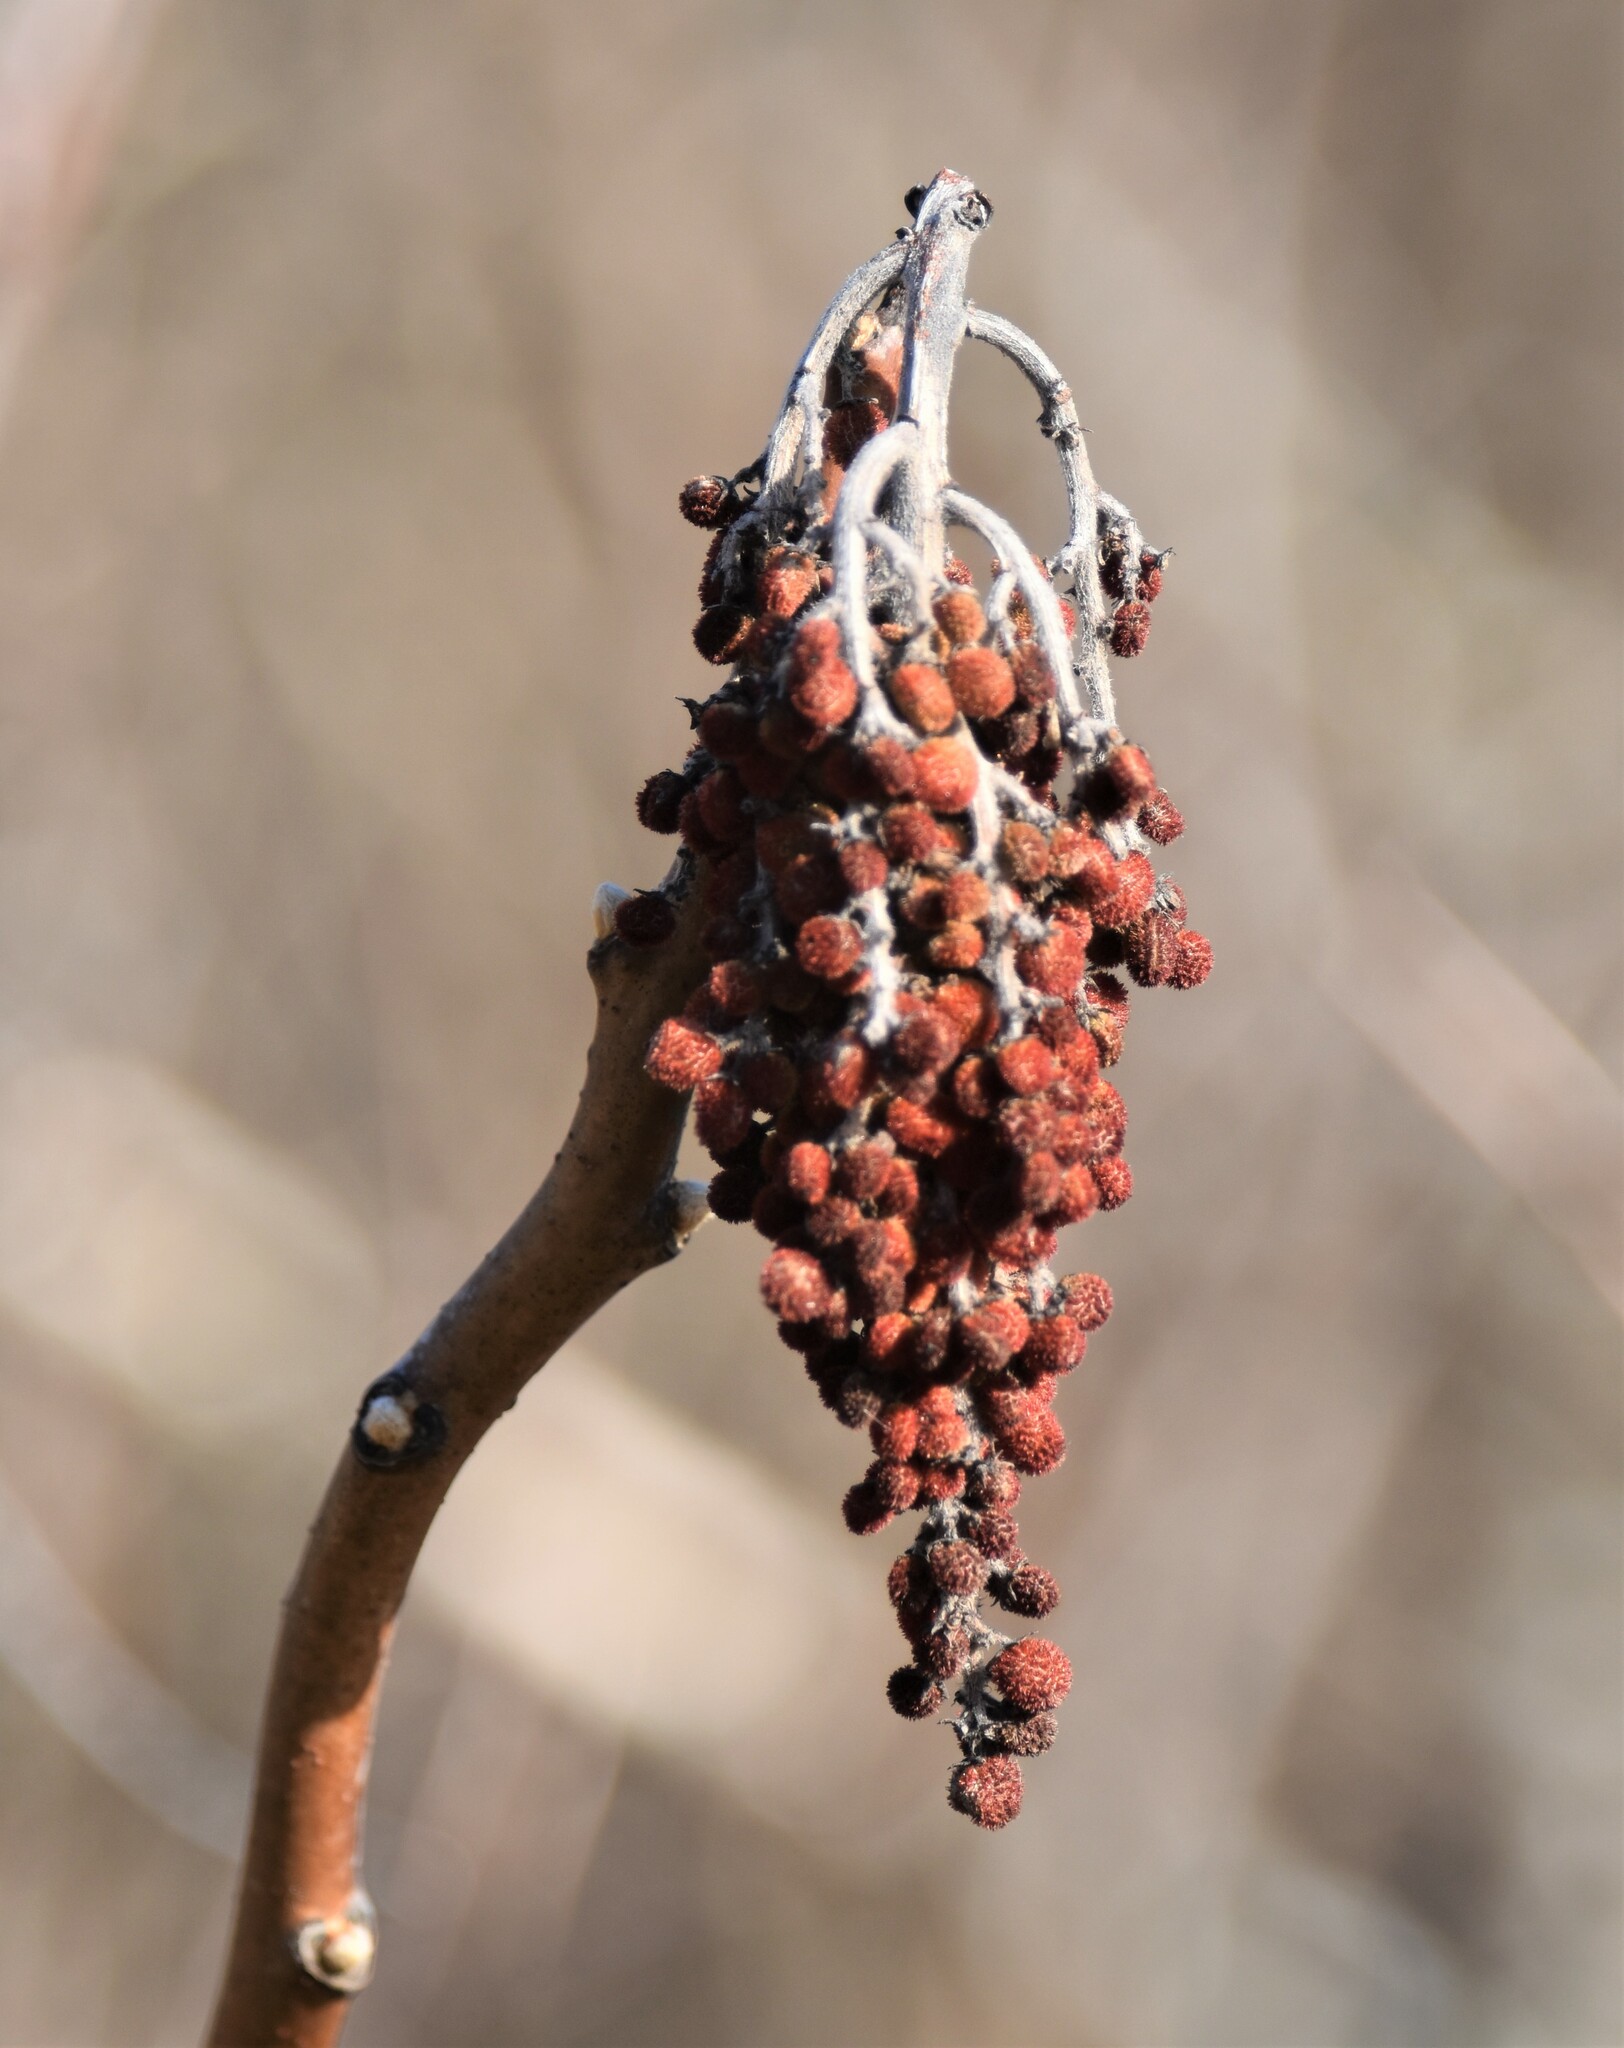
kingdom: Plantae
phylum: Tracheophyta
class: Magnoliopsida
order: Sapindales
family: Anacardiaceae
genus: Rhus
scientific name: Rhus glabra
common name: Scarlet sumac
